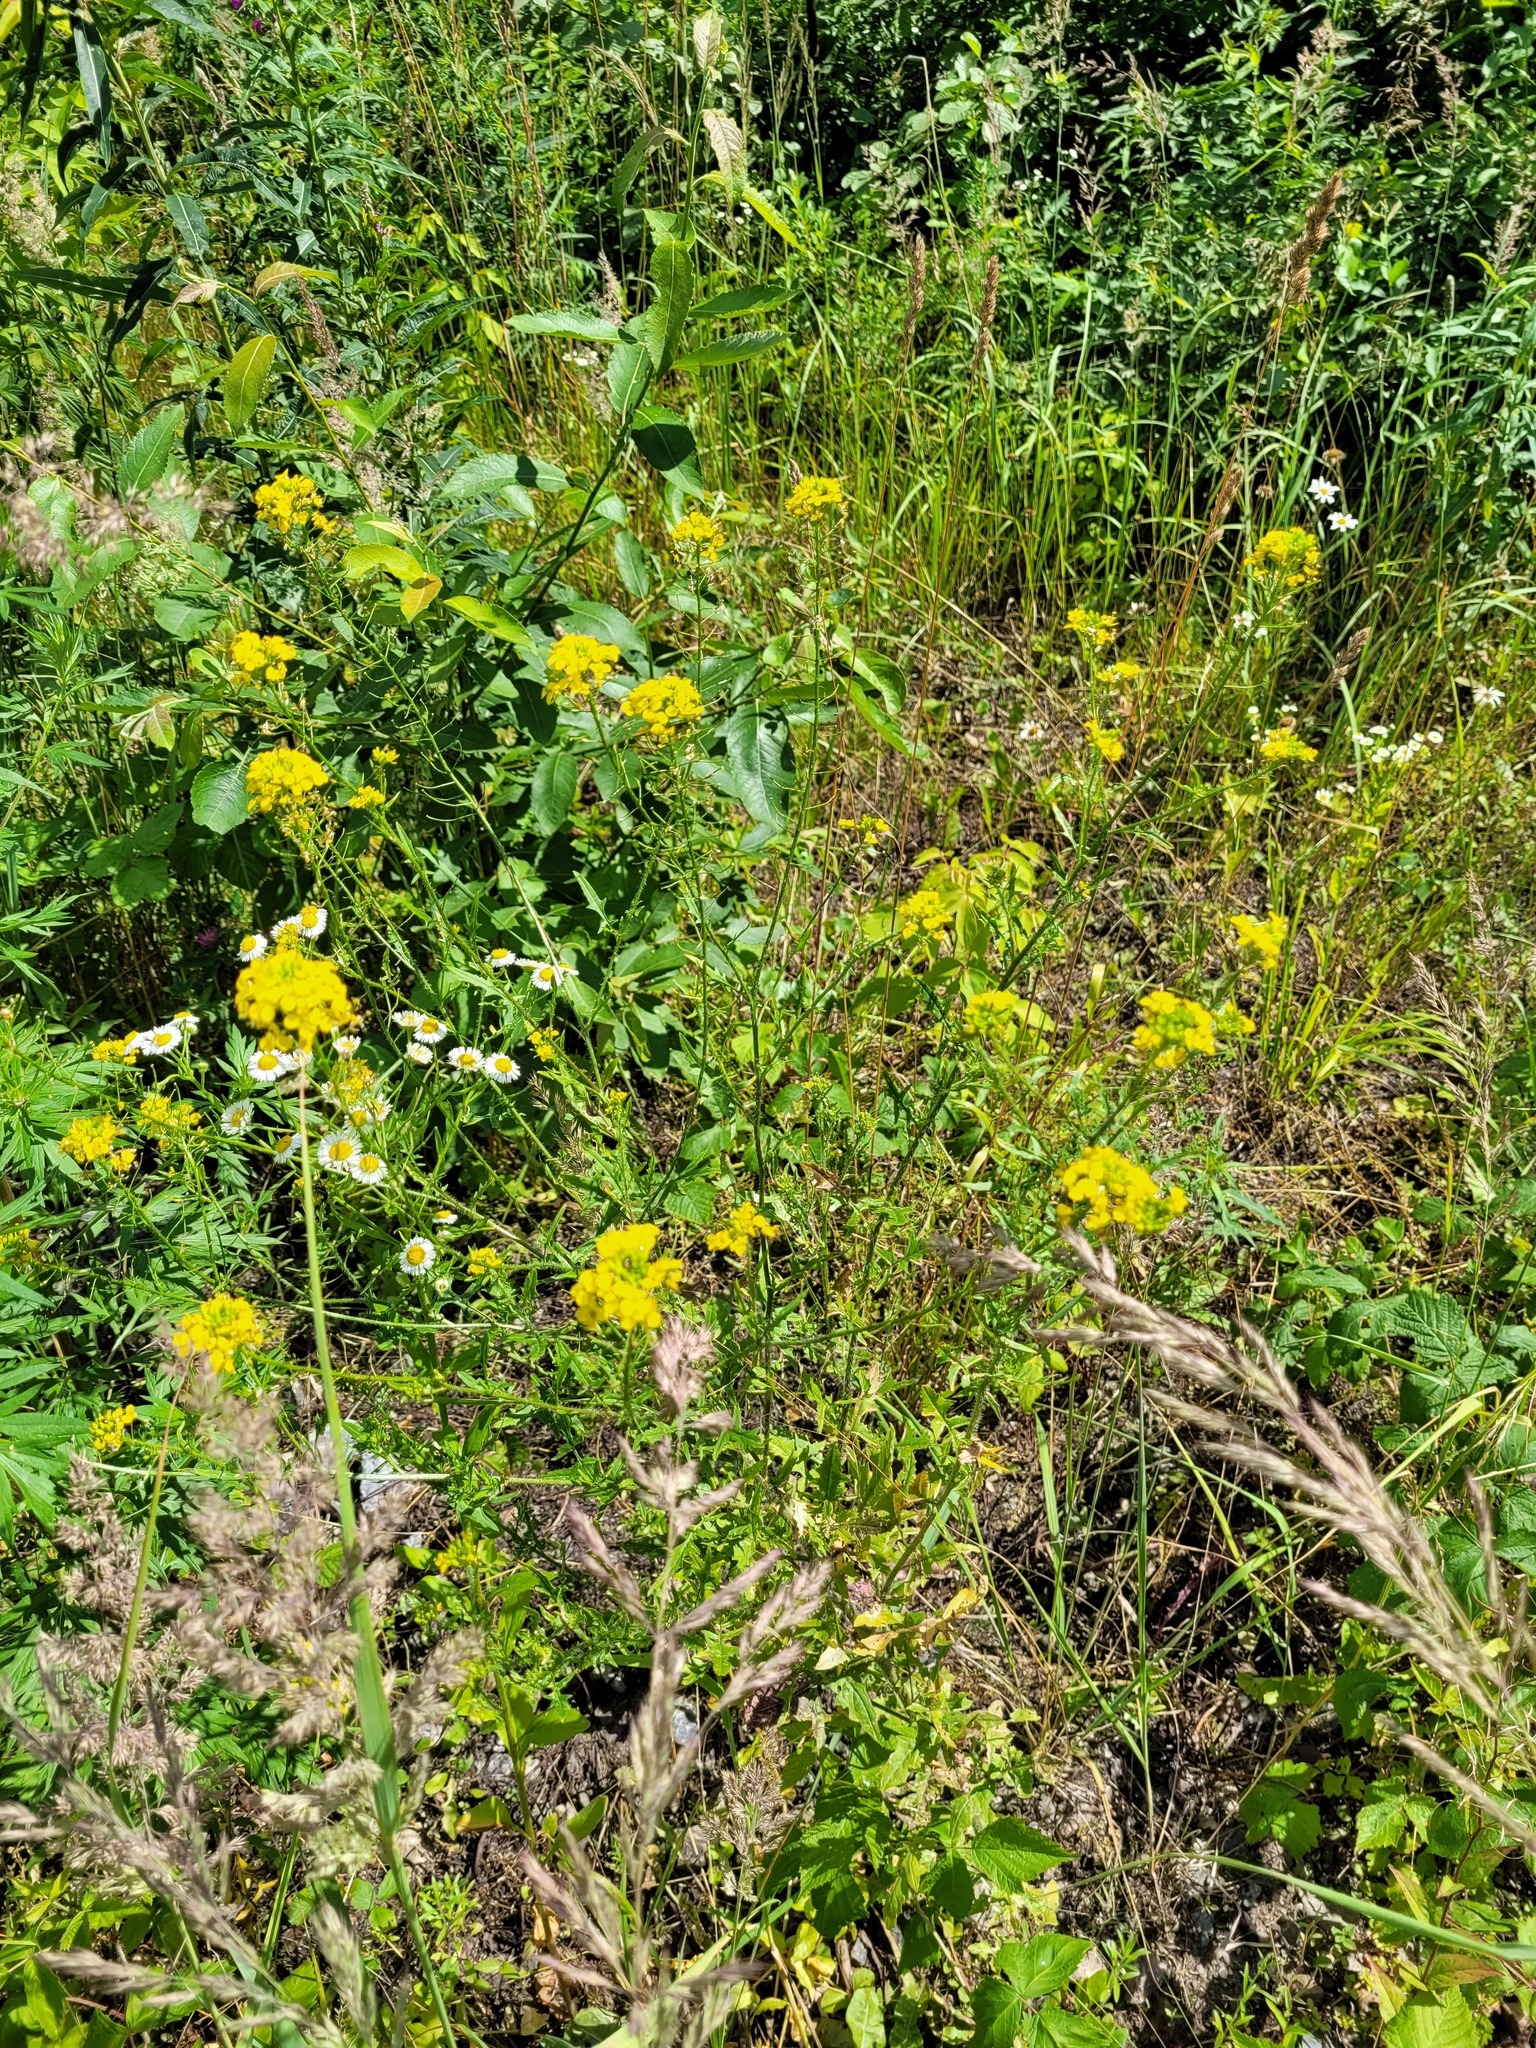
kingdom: Plantae
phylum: Tracheophyta
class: Magnoliopsida
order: Brassicales
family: Brassicaceae
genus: Sisymbrium
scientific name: Sisymbrium loeselii
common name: False london-rocket
